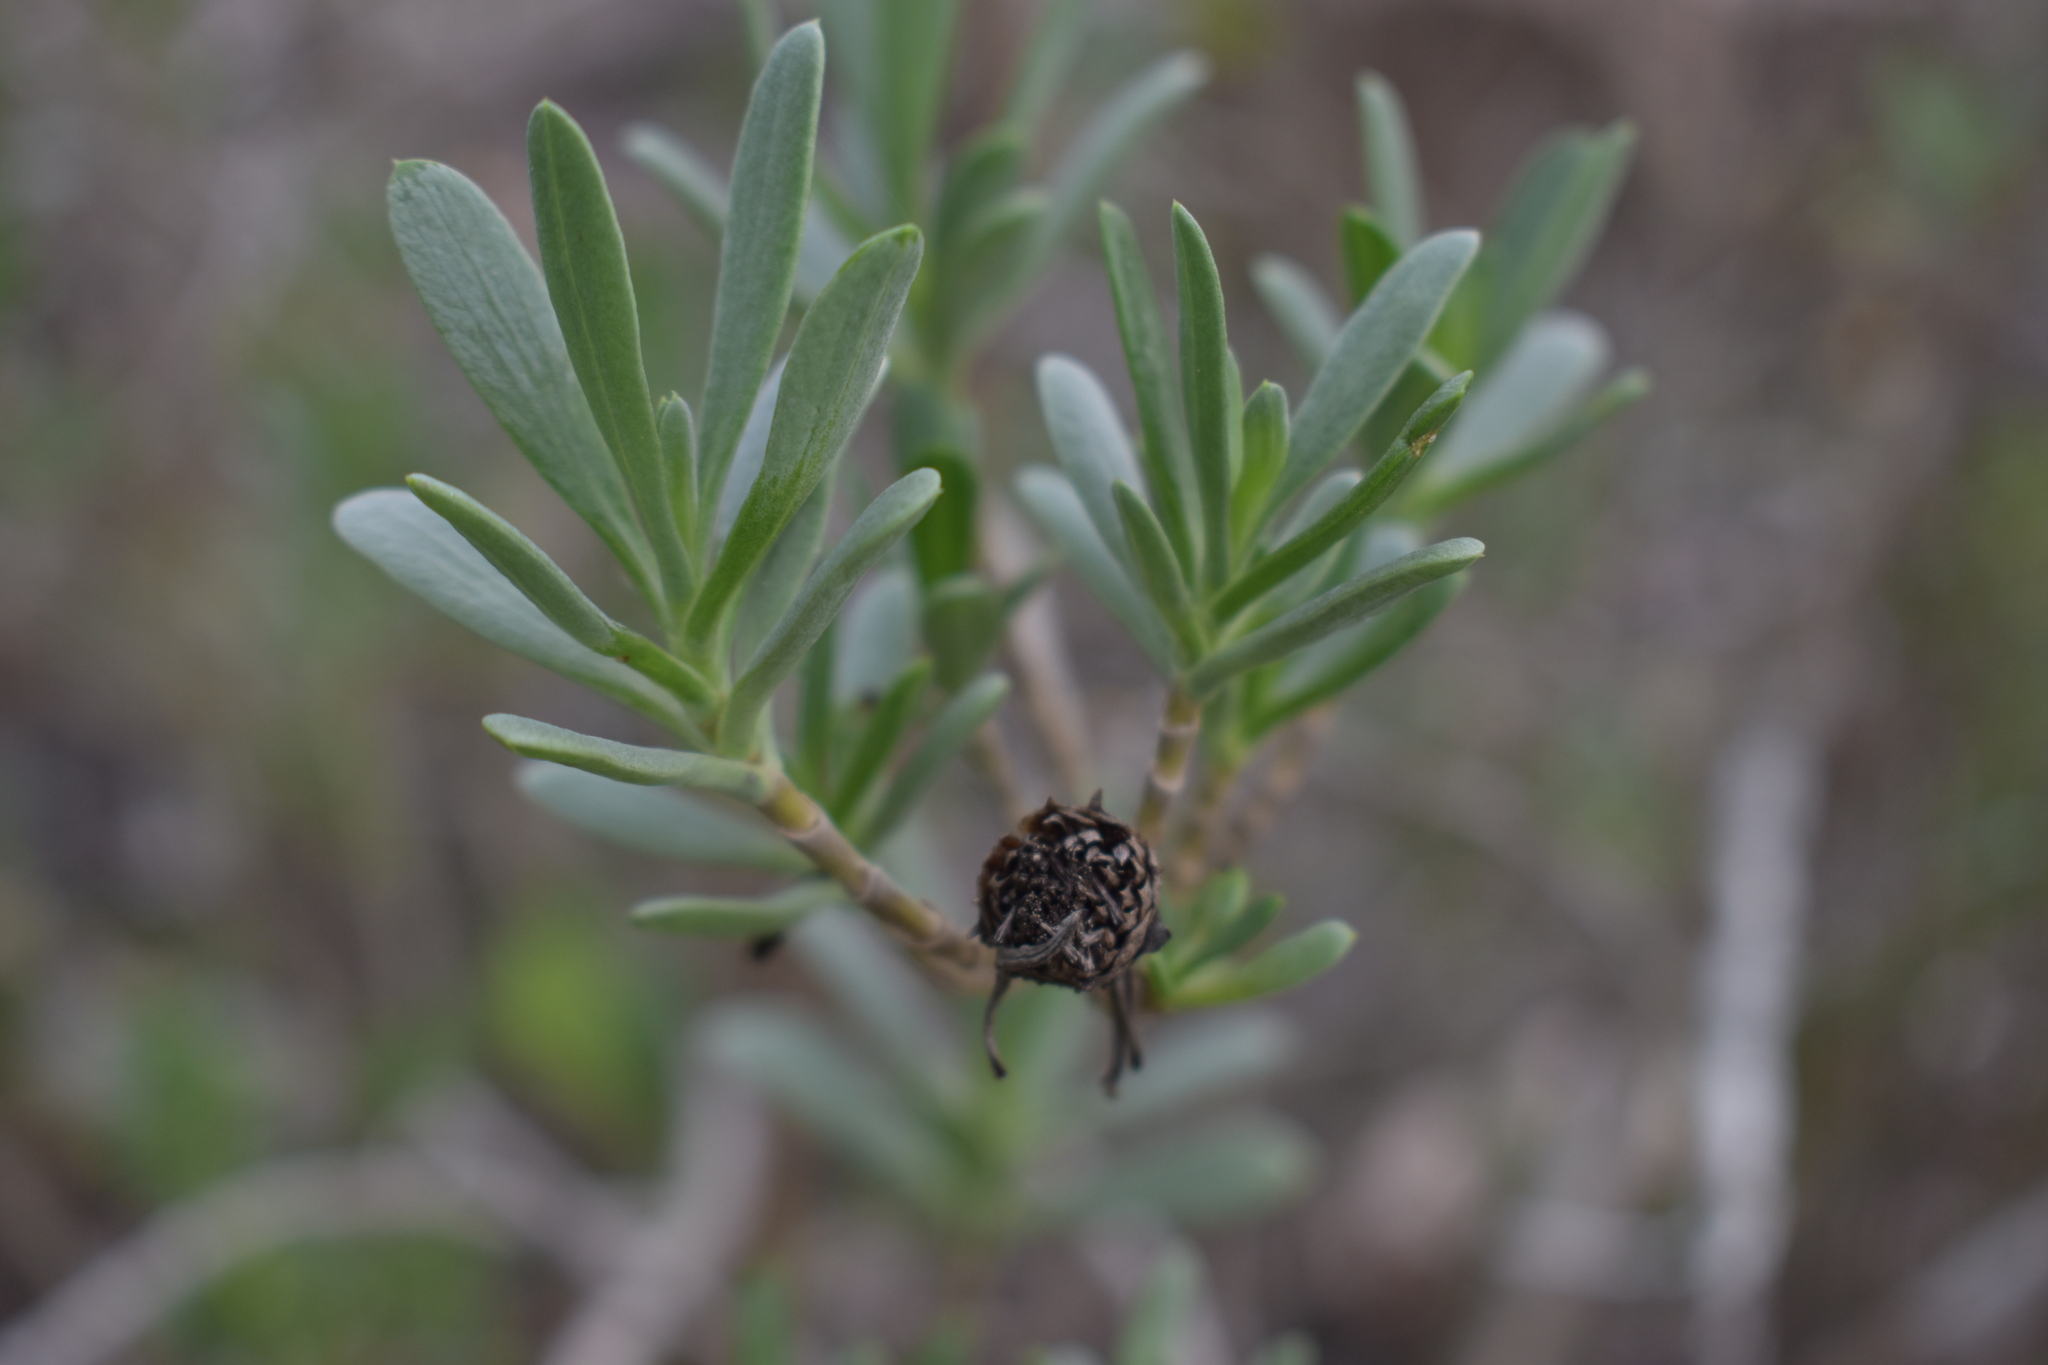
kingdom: Plantae
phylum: Tracheophyta
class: Magnoliopsida
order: Asterales
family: Asteraceae
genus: Borrichia
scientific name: Borrichia frutescens
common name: Sea oxeye
